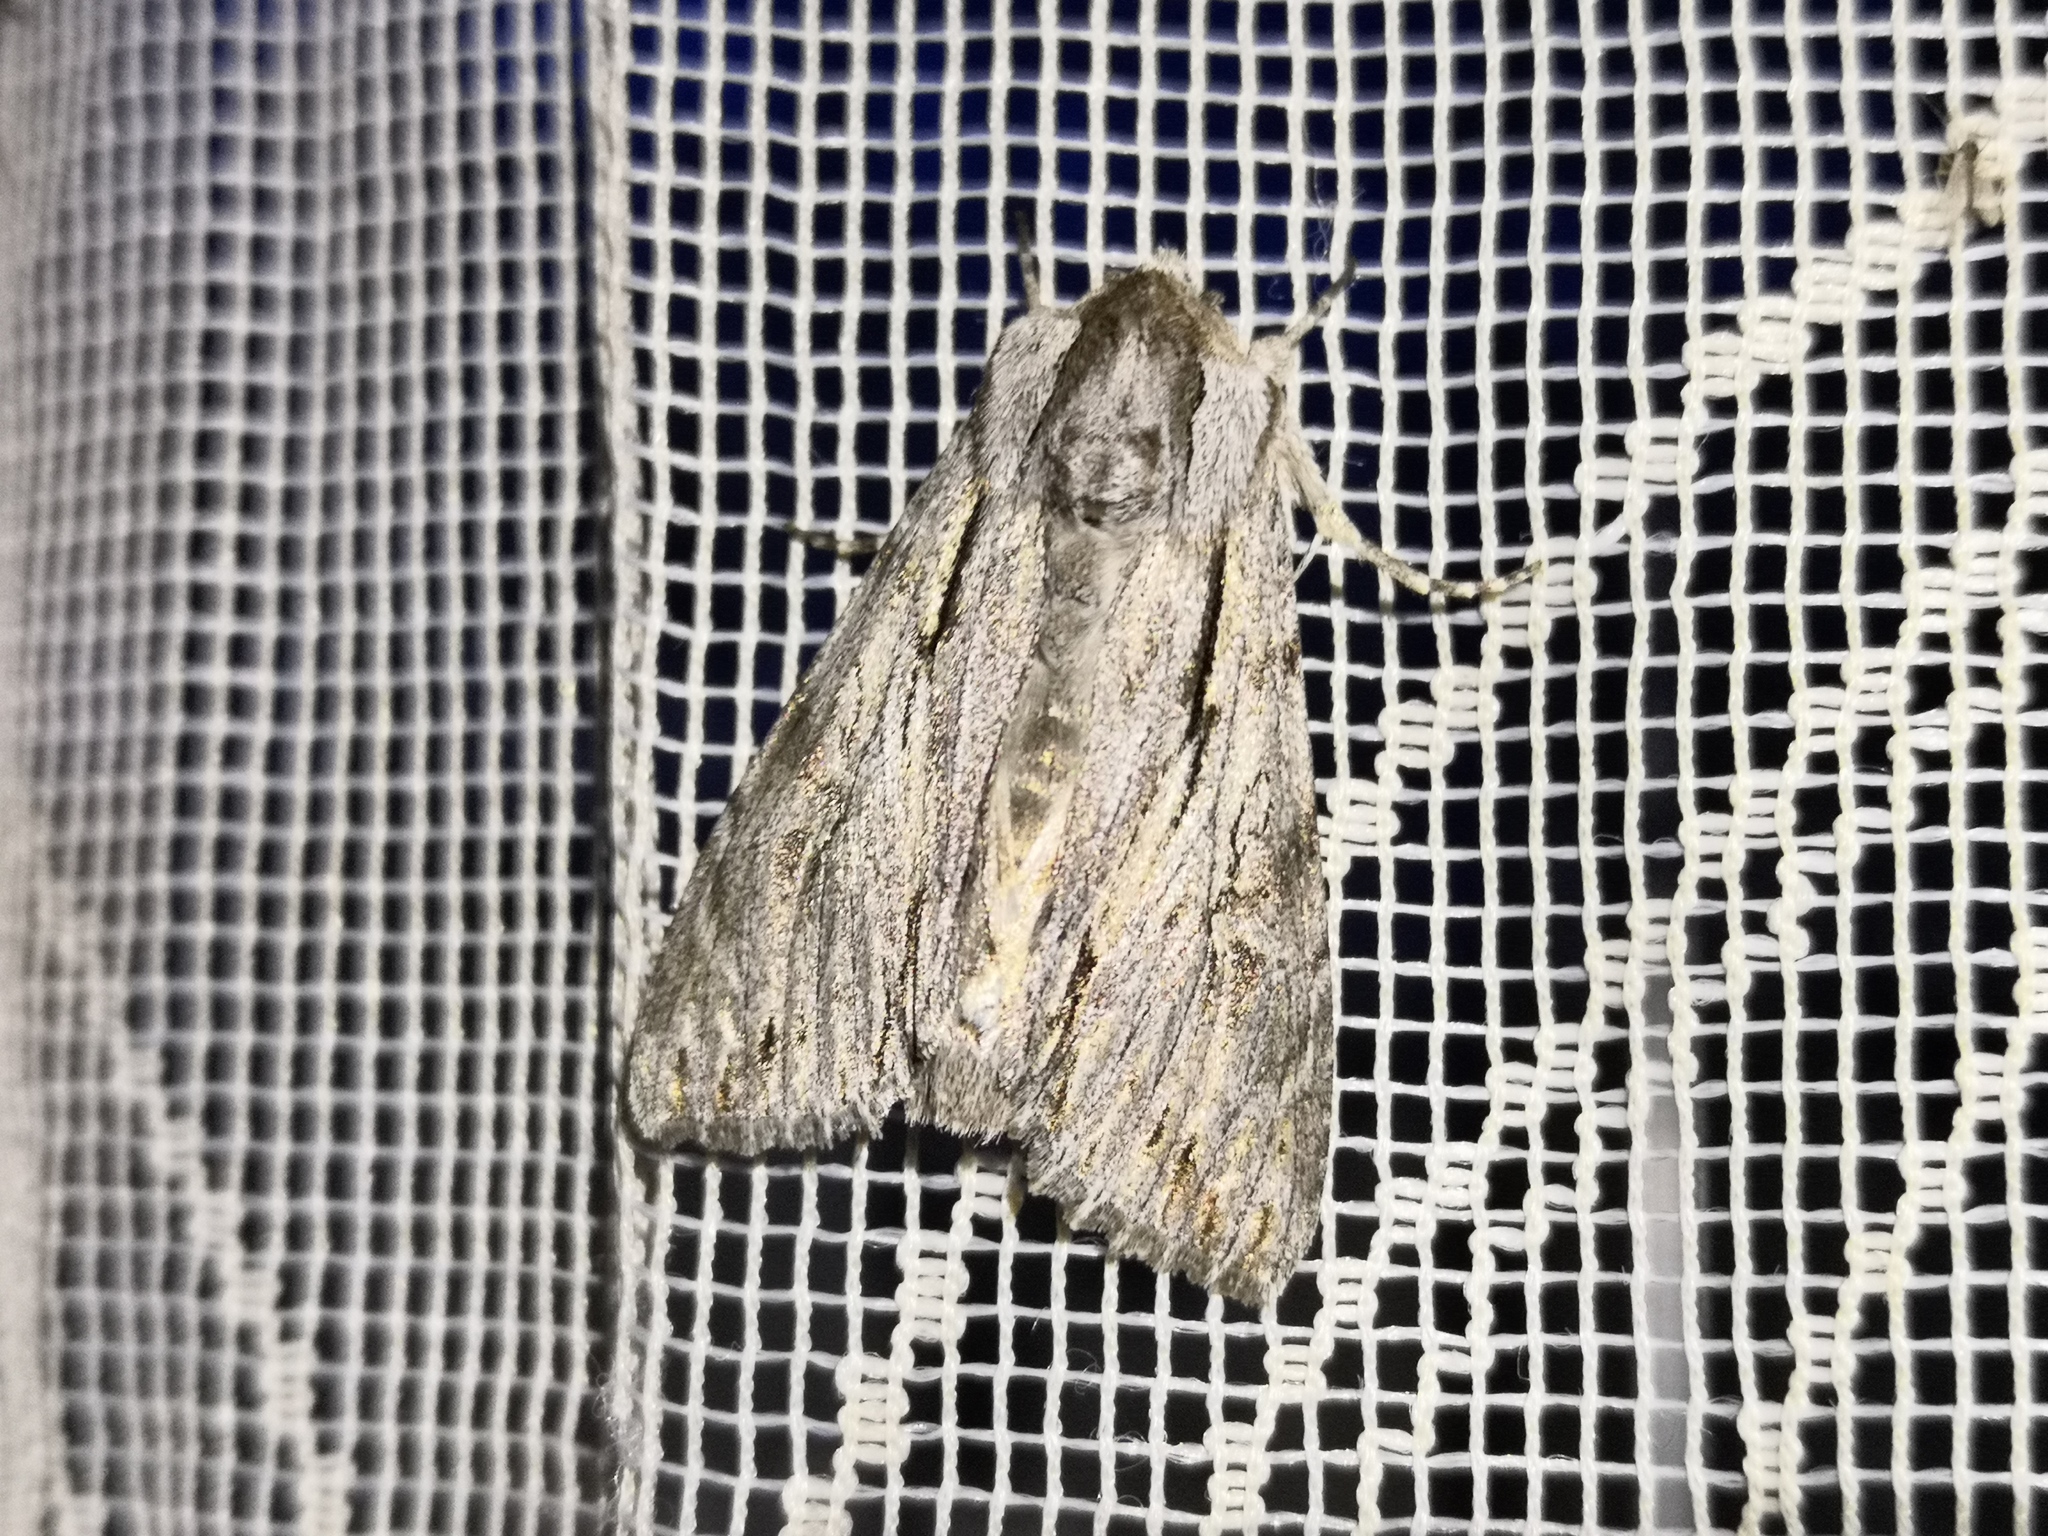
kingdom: Animalia
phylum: Arthropoda
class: Insecta
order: Lepidoptera
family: Noctuidae
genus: Auchmis
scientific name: Auchmis detersa
